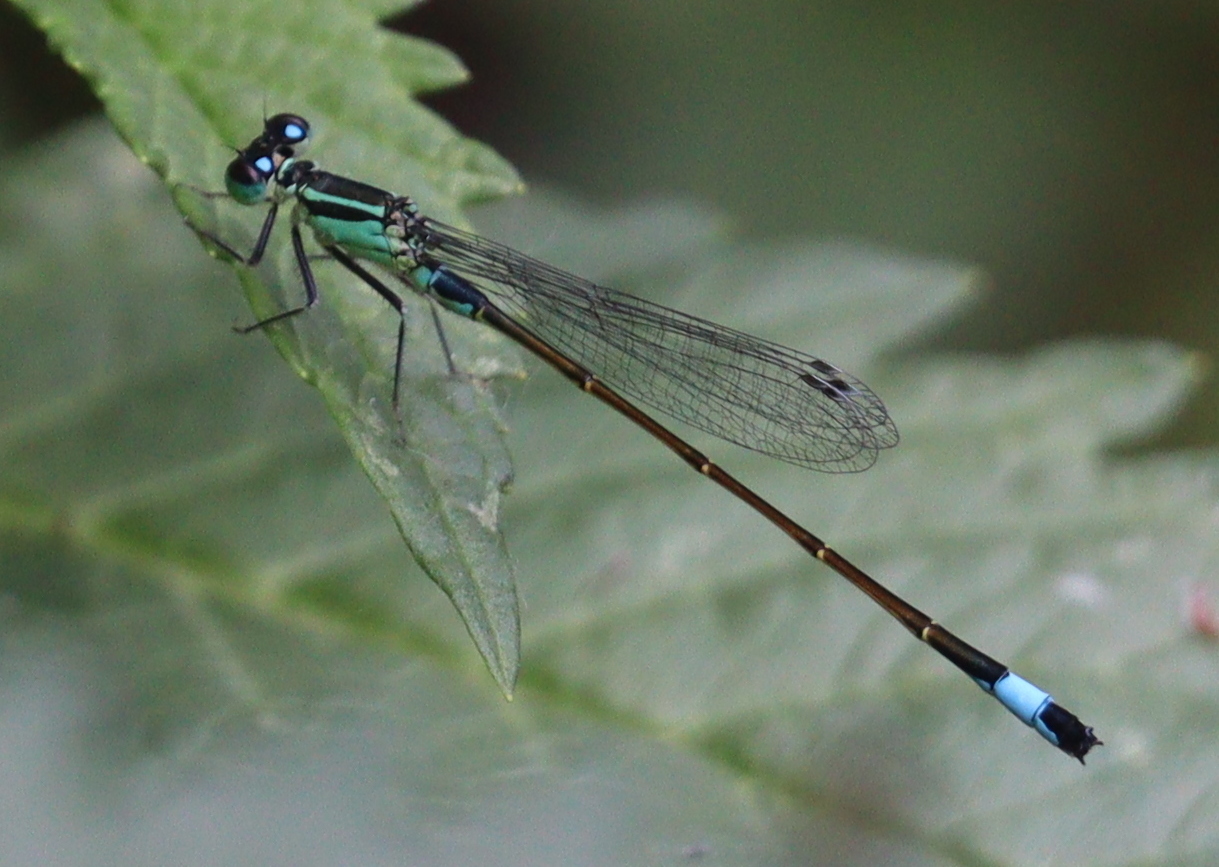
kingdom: Animalia
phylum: Arthropoda
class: Insecta
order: Odonata
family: Coenagrionidae
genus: Ischnura
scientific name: Ischnura elegans
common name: Blue-tailed damselfly
